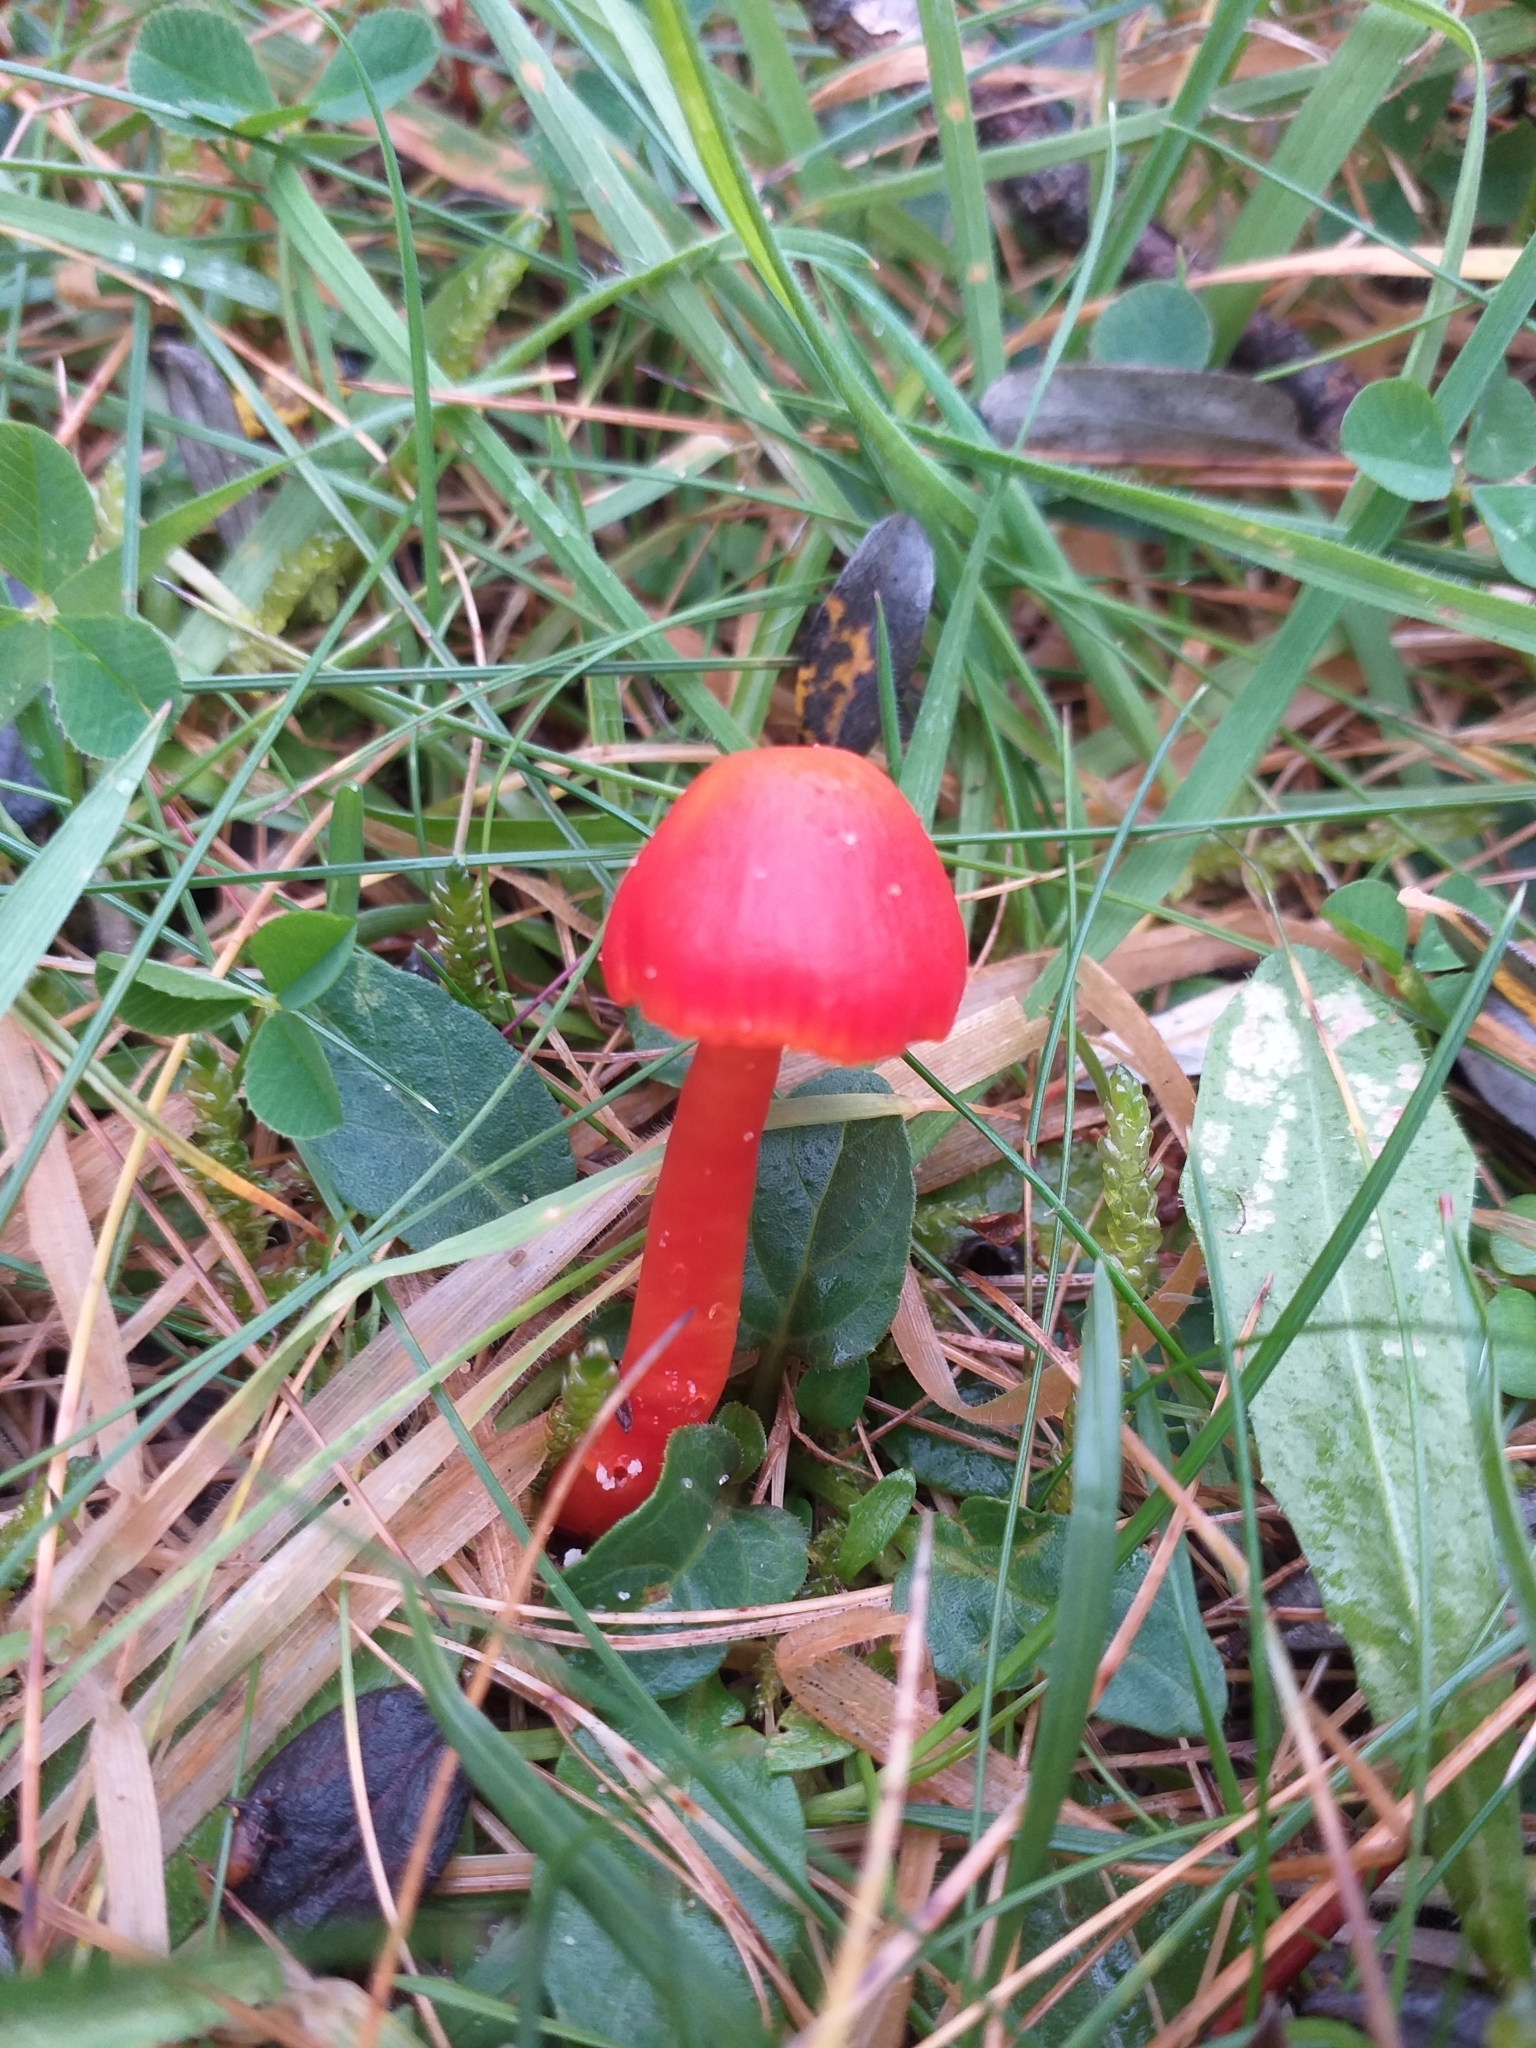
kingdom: Fungi
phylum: Basidiomycota
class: Agaricomycetes
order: Agaricales
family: Hygrophoraceae
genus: Hygrocybe
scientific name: Hygrocybe coccinea
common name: Scarlet hood
